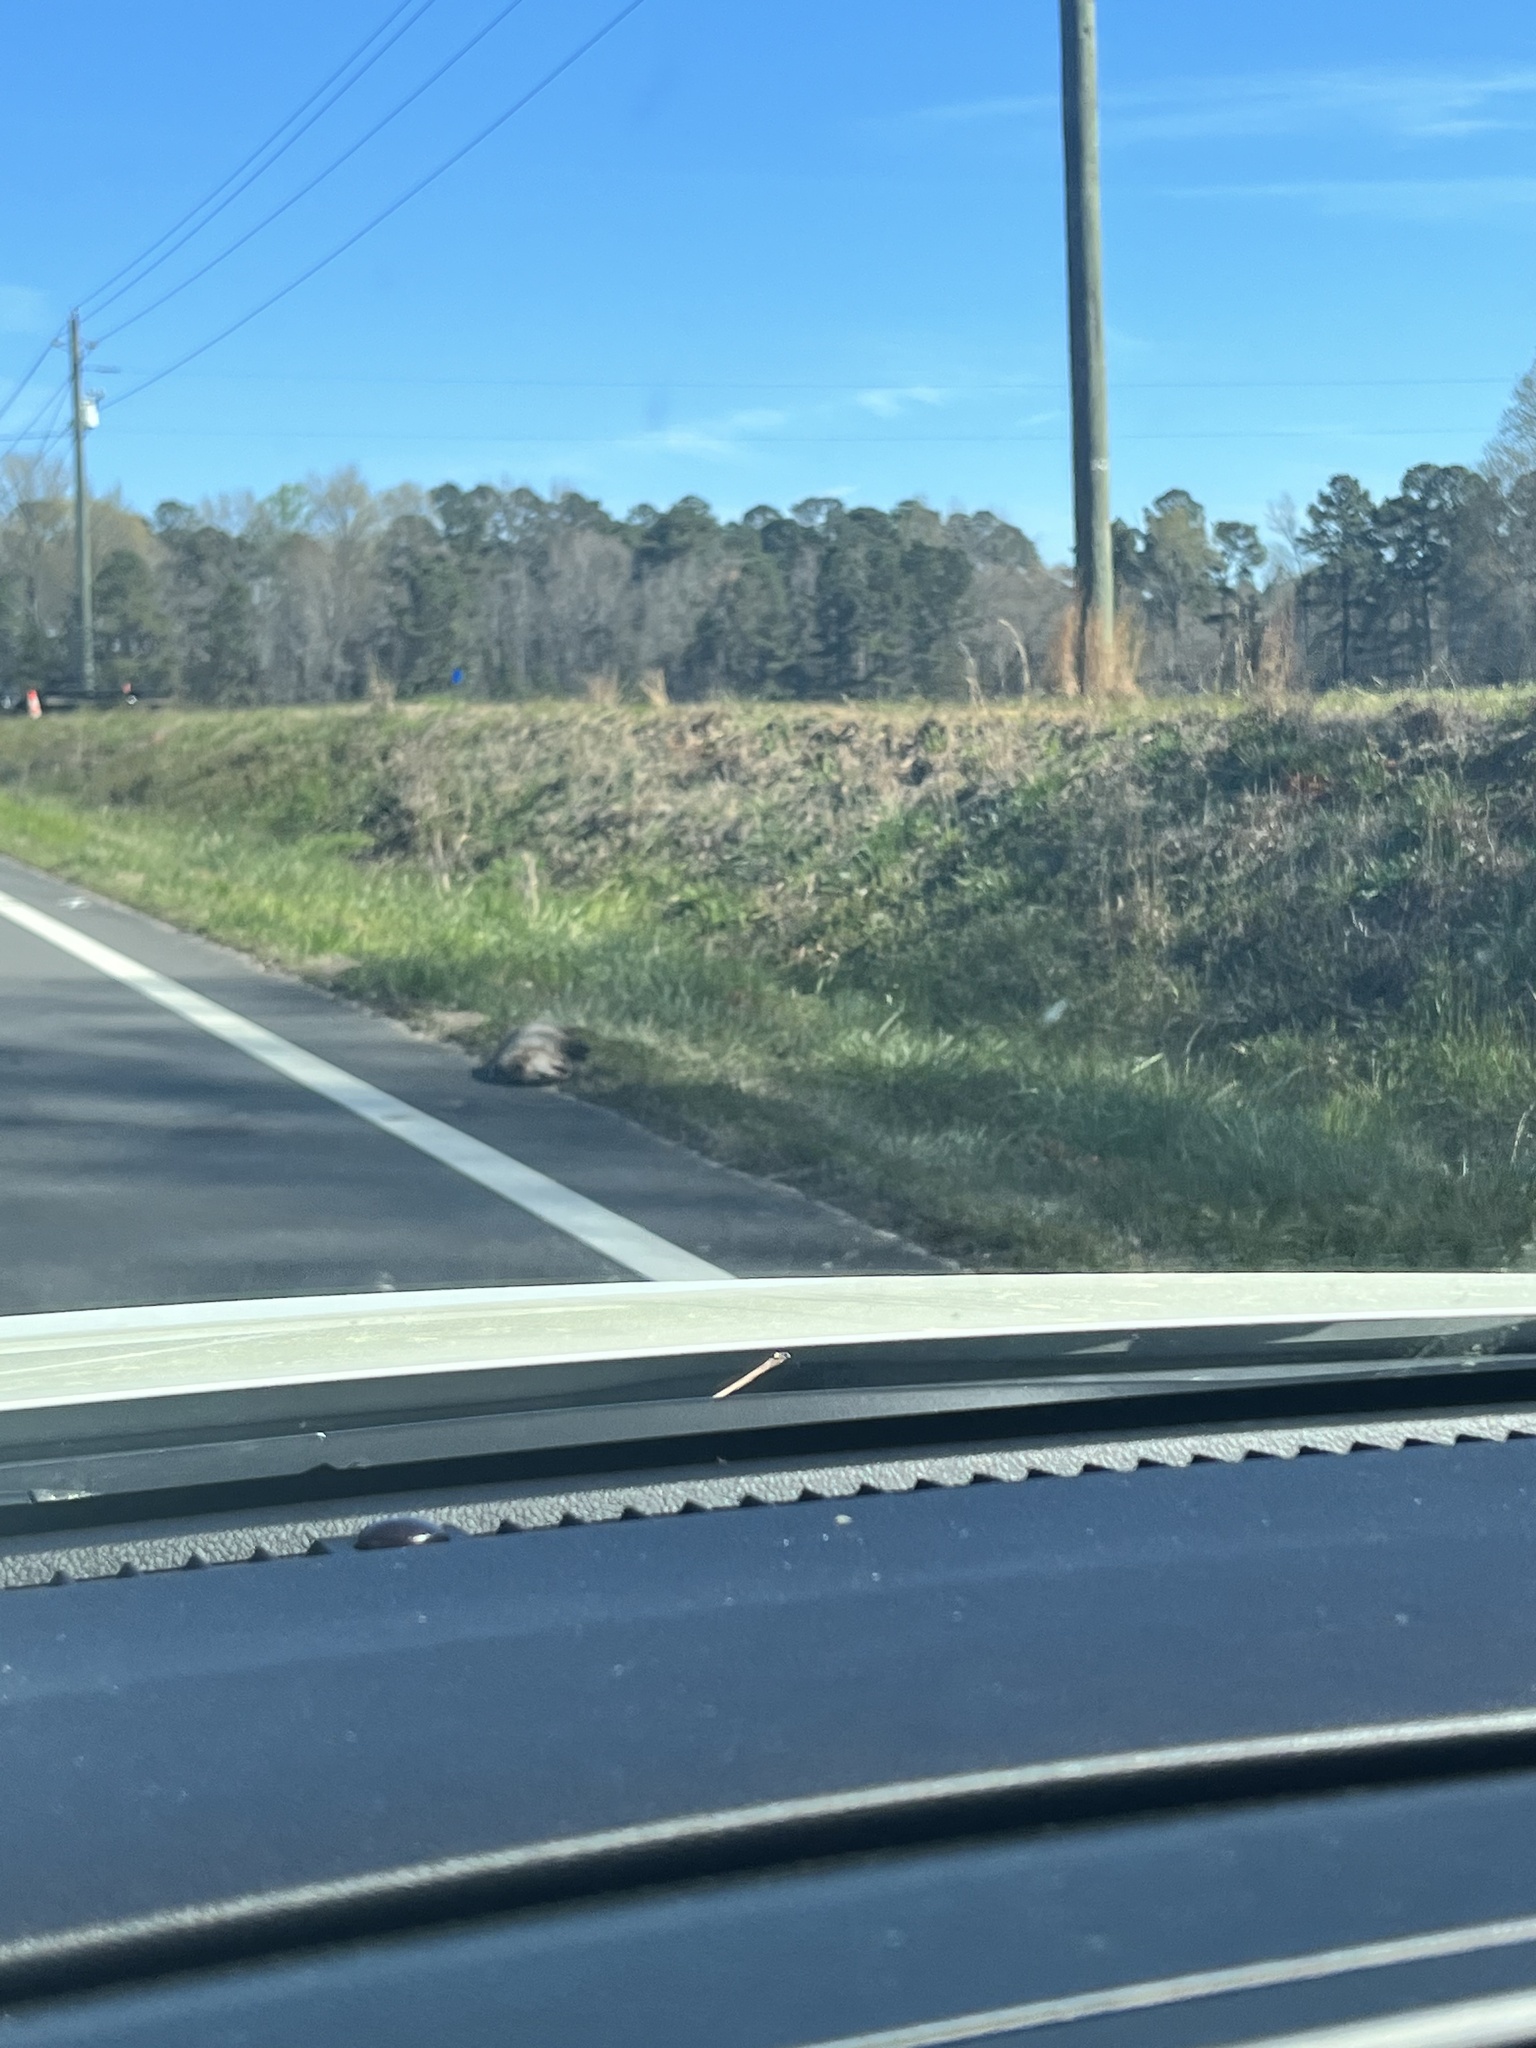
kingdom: Animalia
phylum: Chordata
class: Mammalia
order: Didelphimorphia
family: Didelphidae
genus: Didelphis
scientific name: Didelphis virginiana
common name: Virginia opossum
